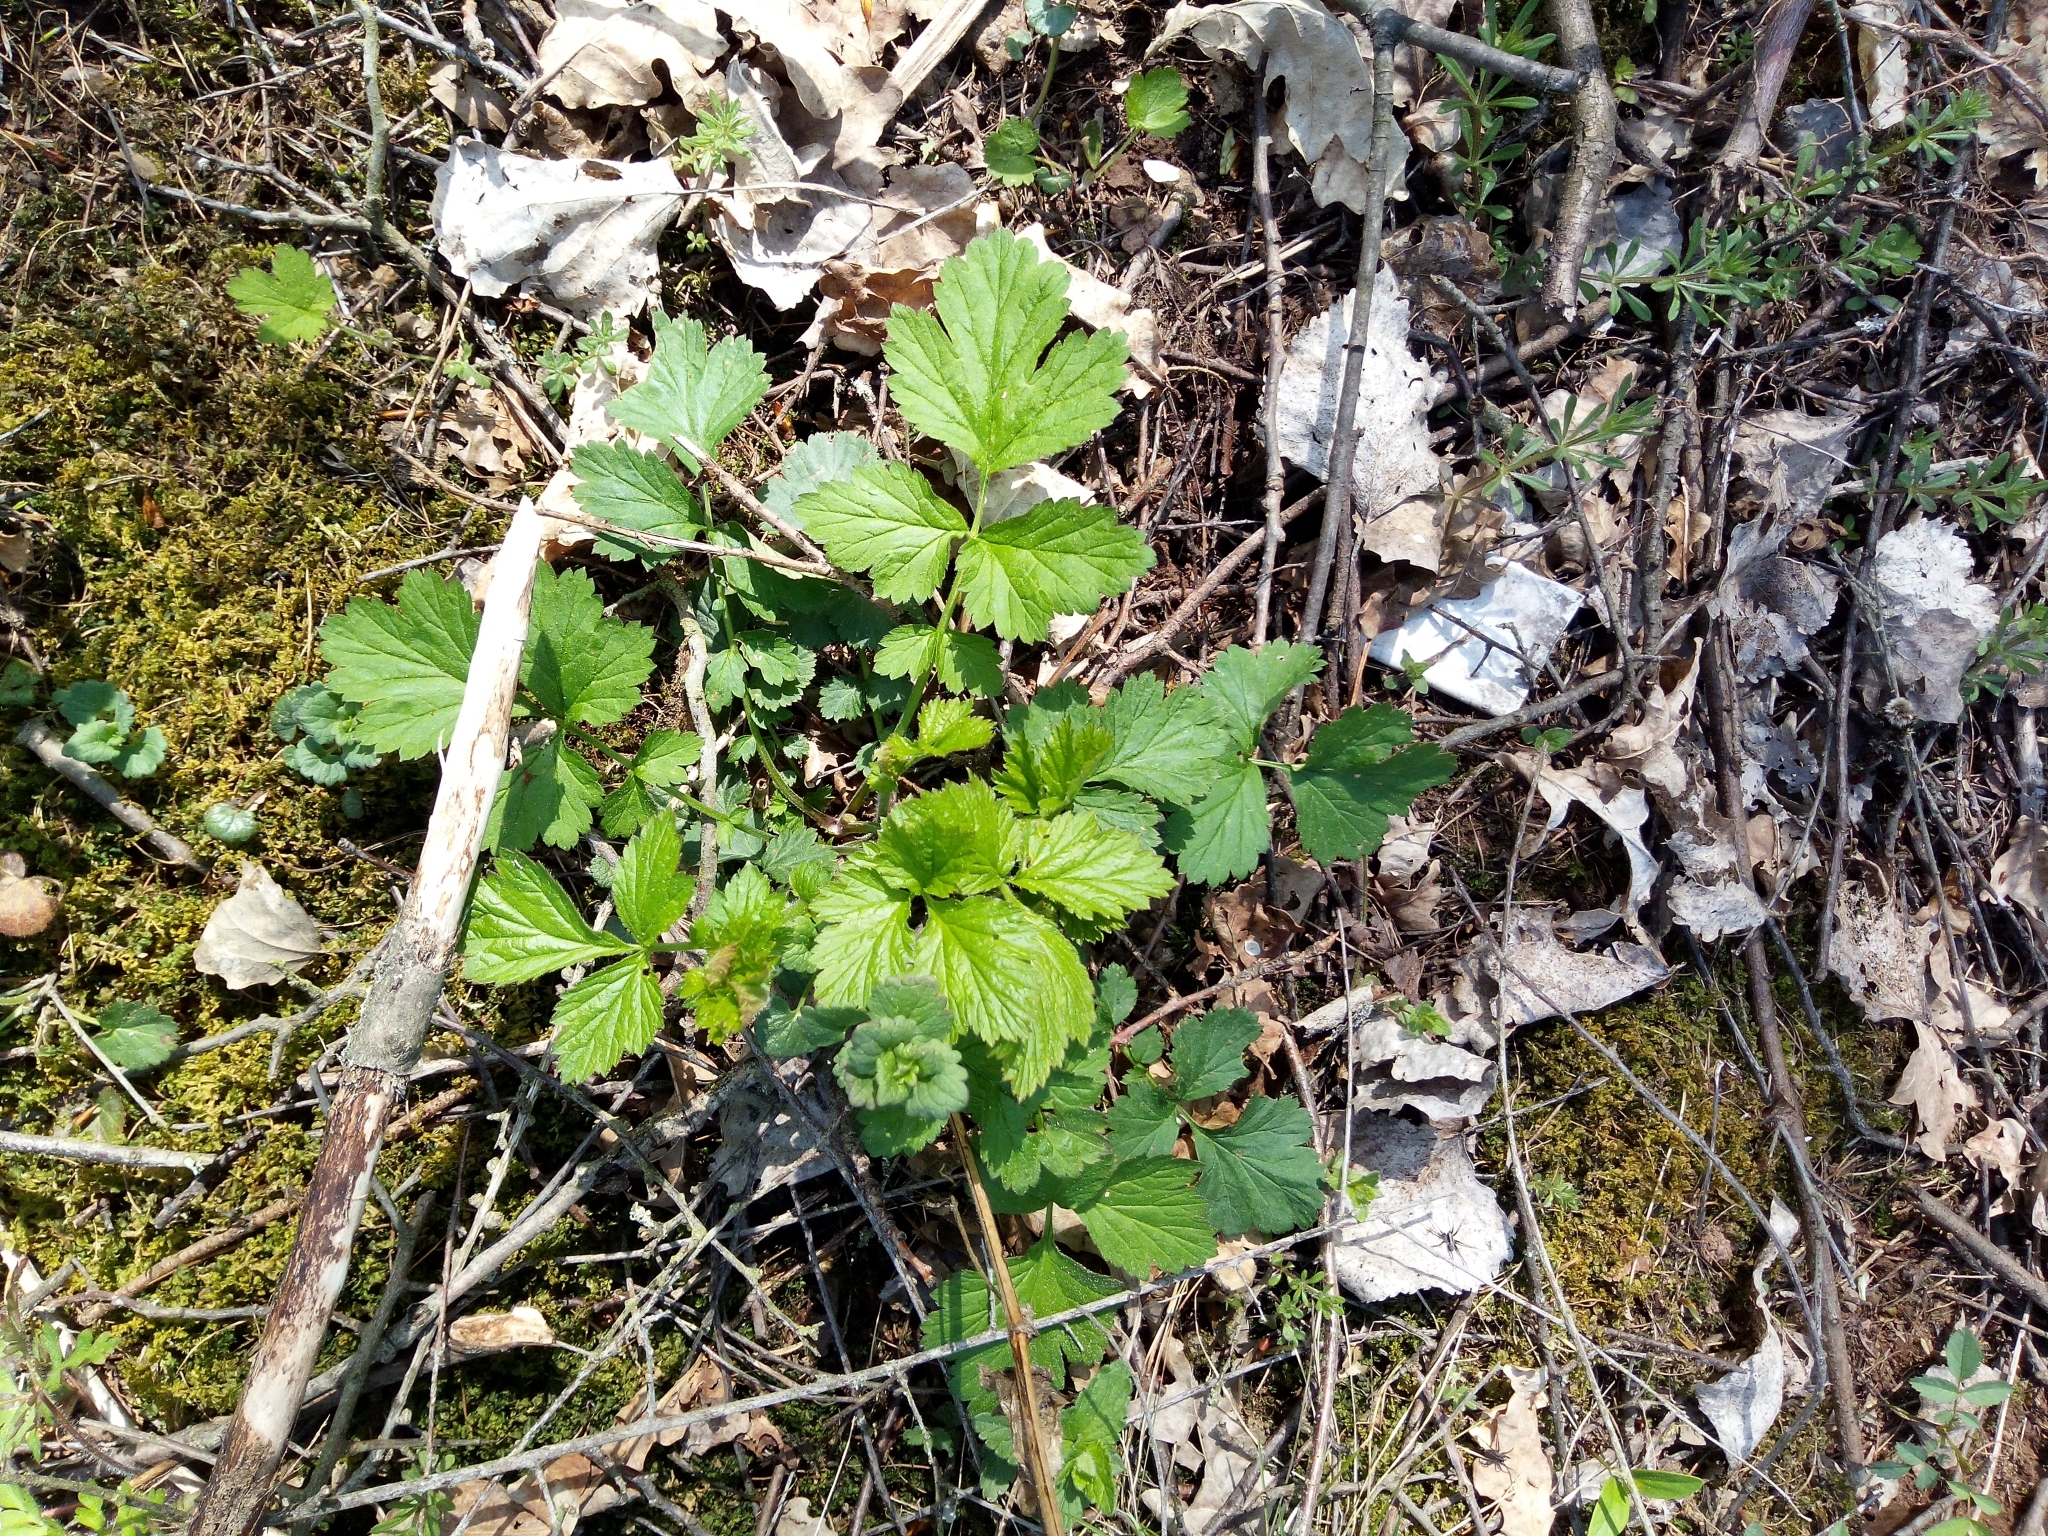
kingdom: Plantae
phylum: Tracheophyta
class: Magnoliopsida
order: Rosales
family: Rosaceae
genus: Geum
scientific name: Geum urbanum
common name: Wood avens
